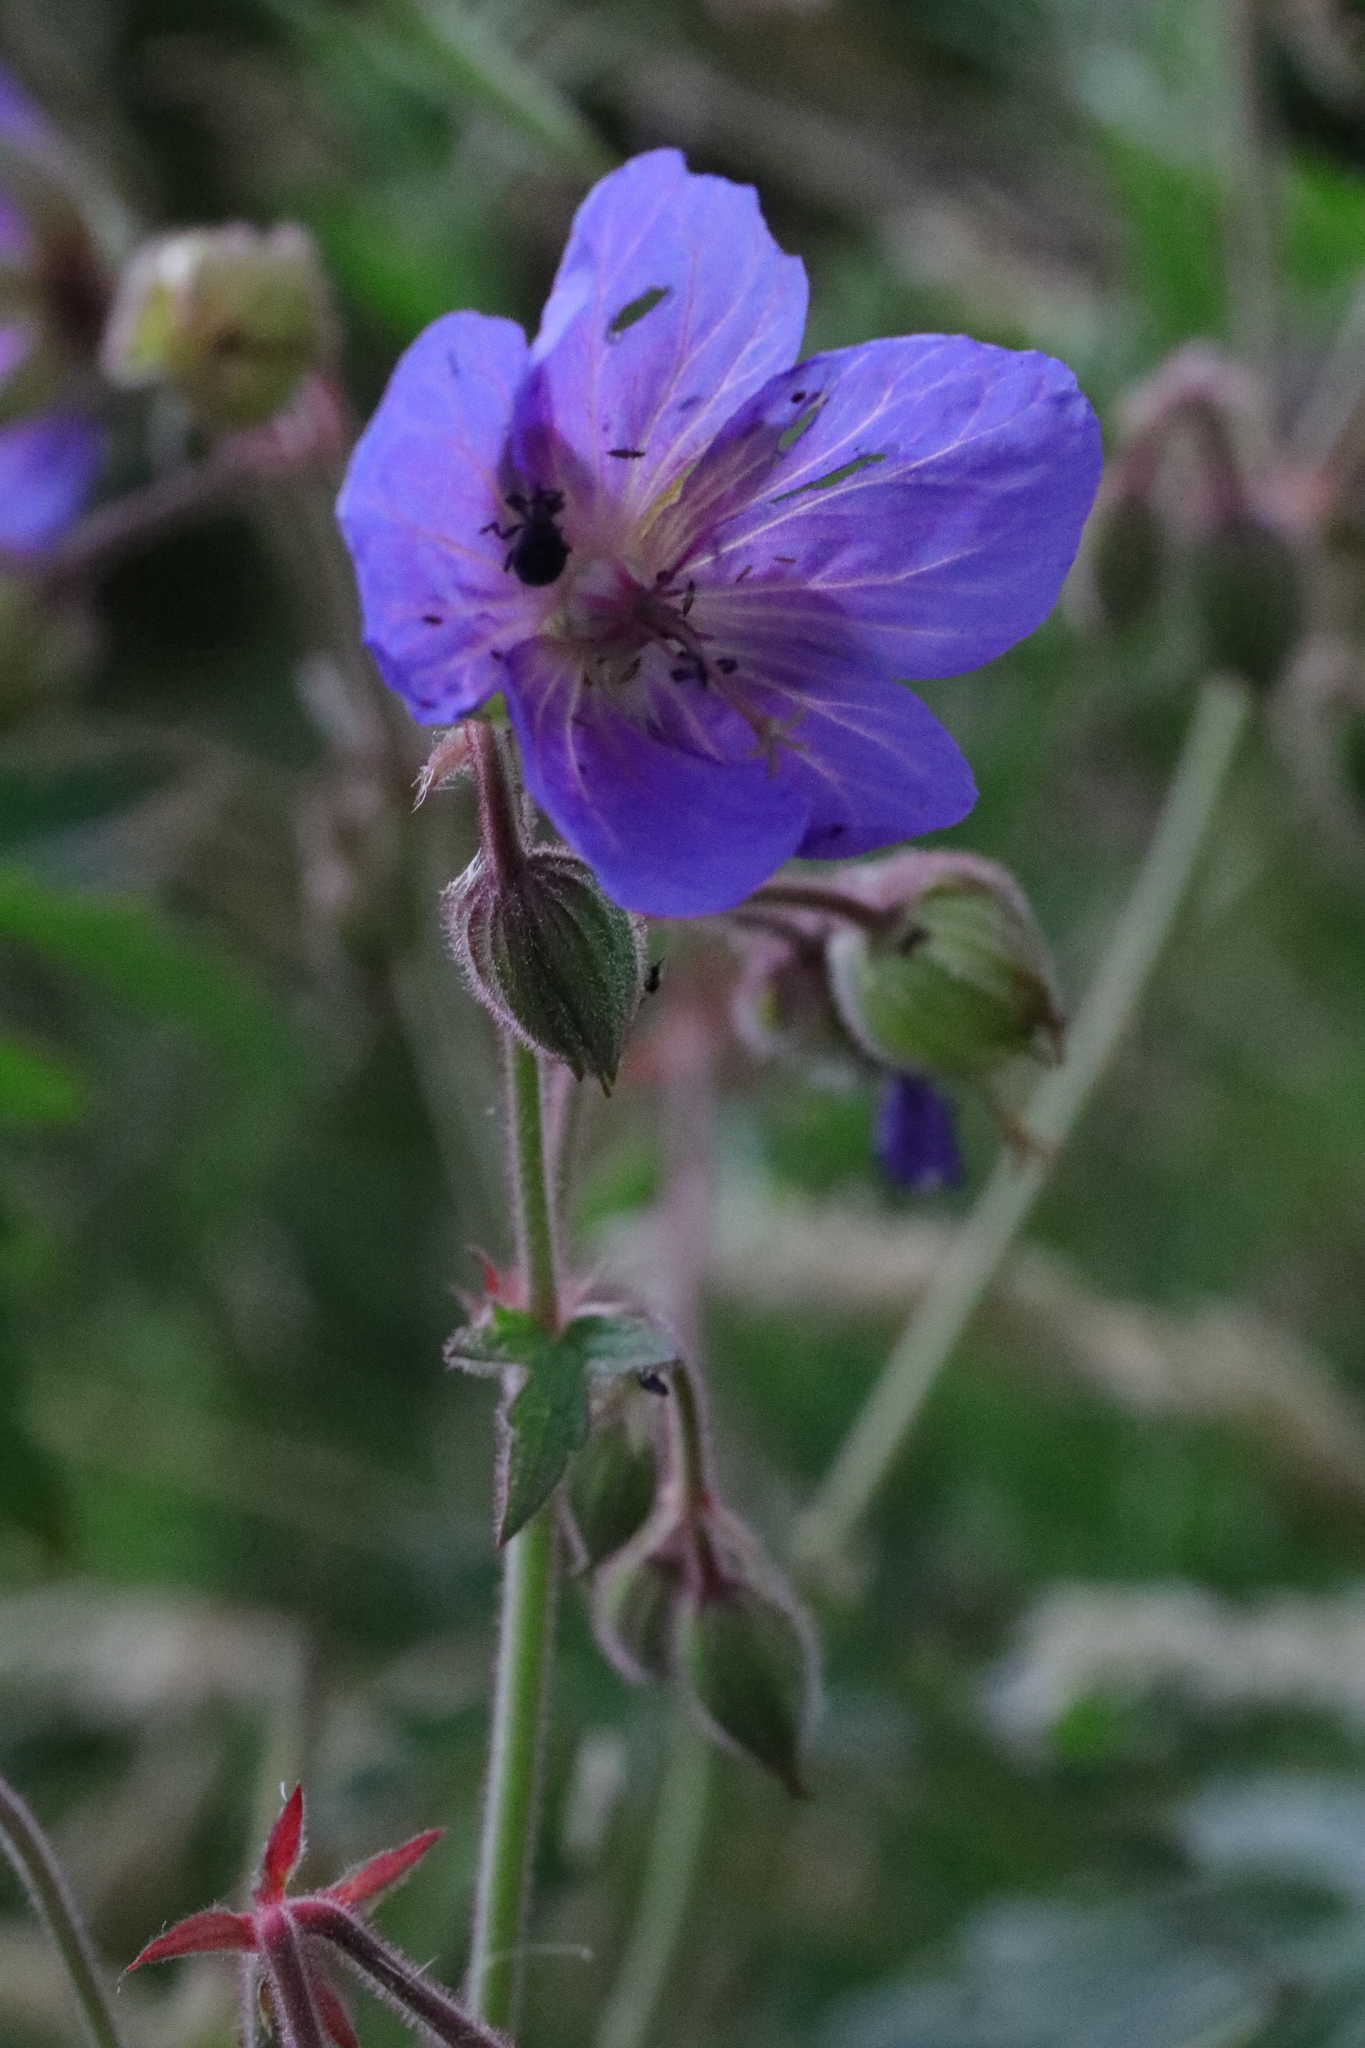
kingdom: Plantae
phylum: Tracheophyta
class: Magnoliopsida
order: Geraniales
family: Geraniaceae
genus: Geranium
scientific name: Geranium pratense
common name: Meadow crane's-bill
